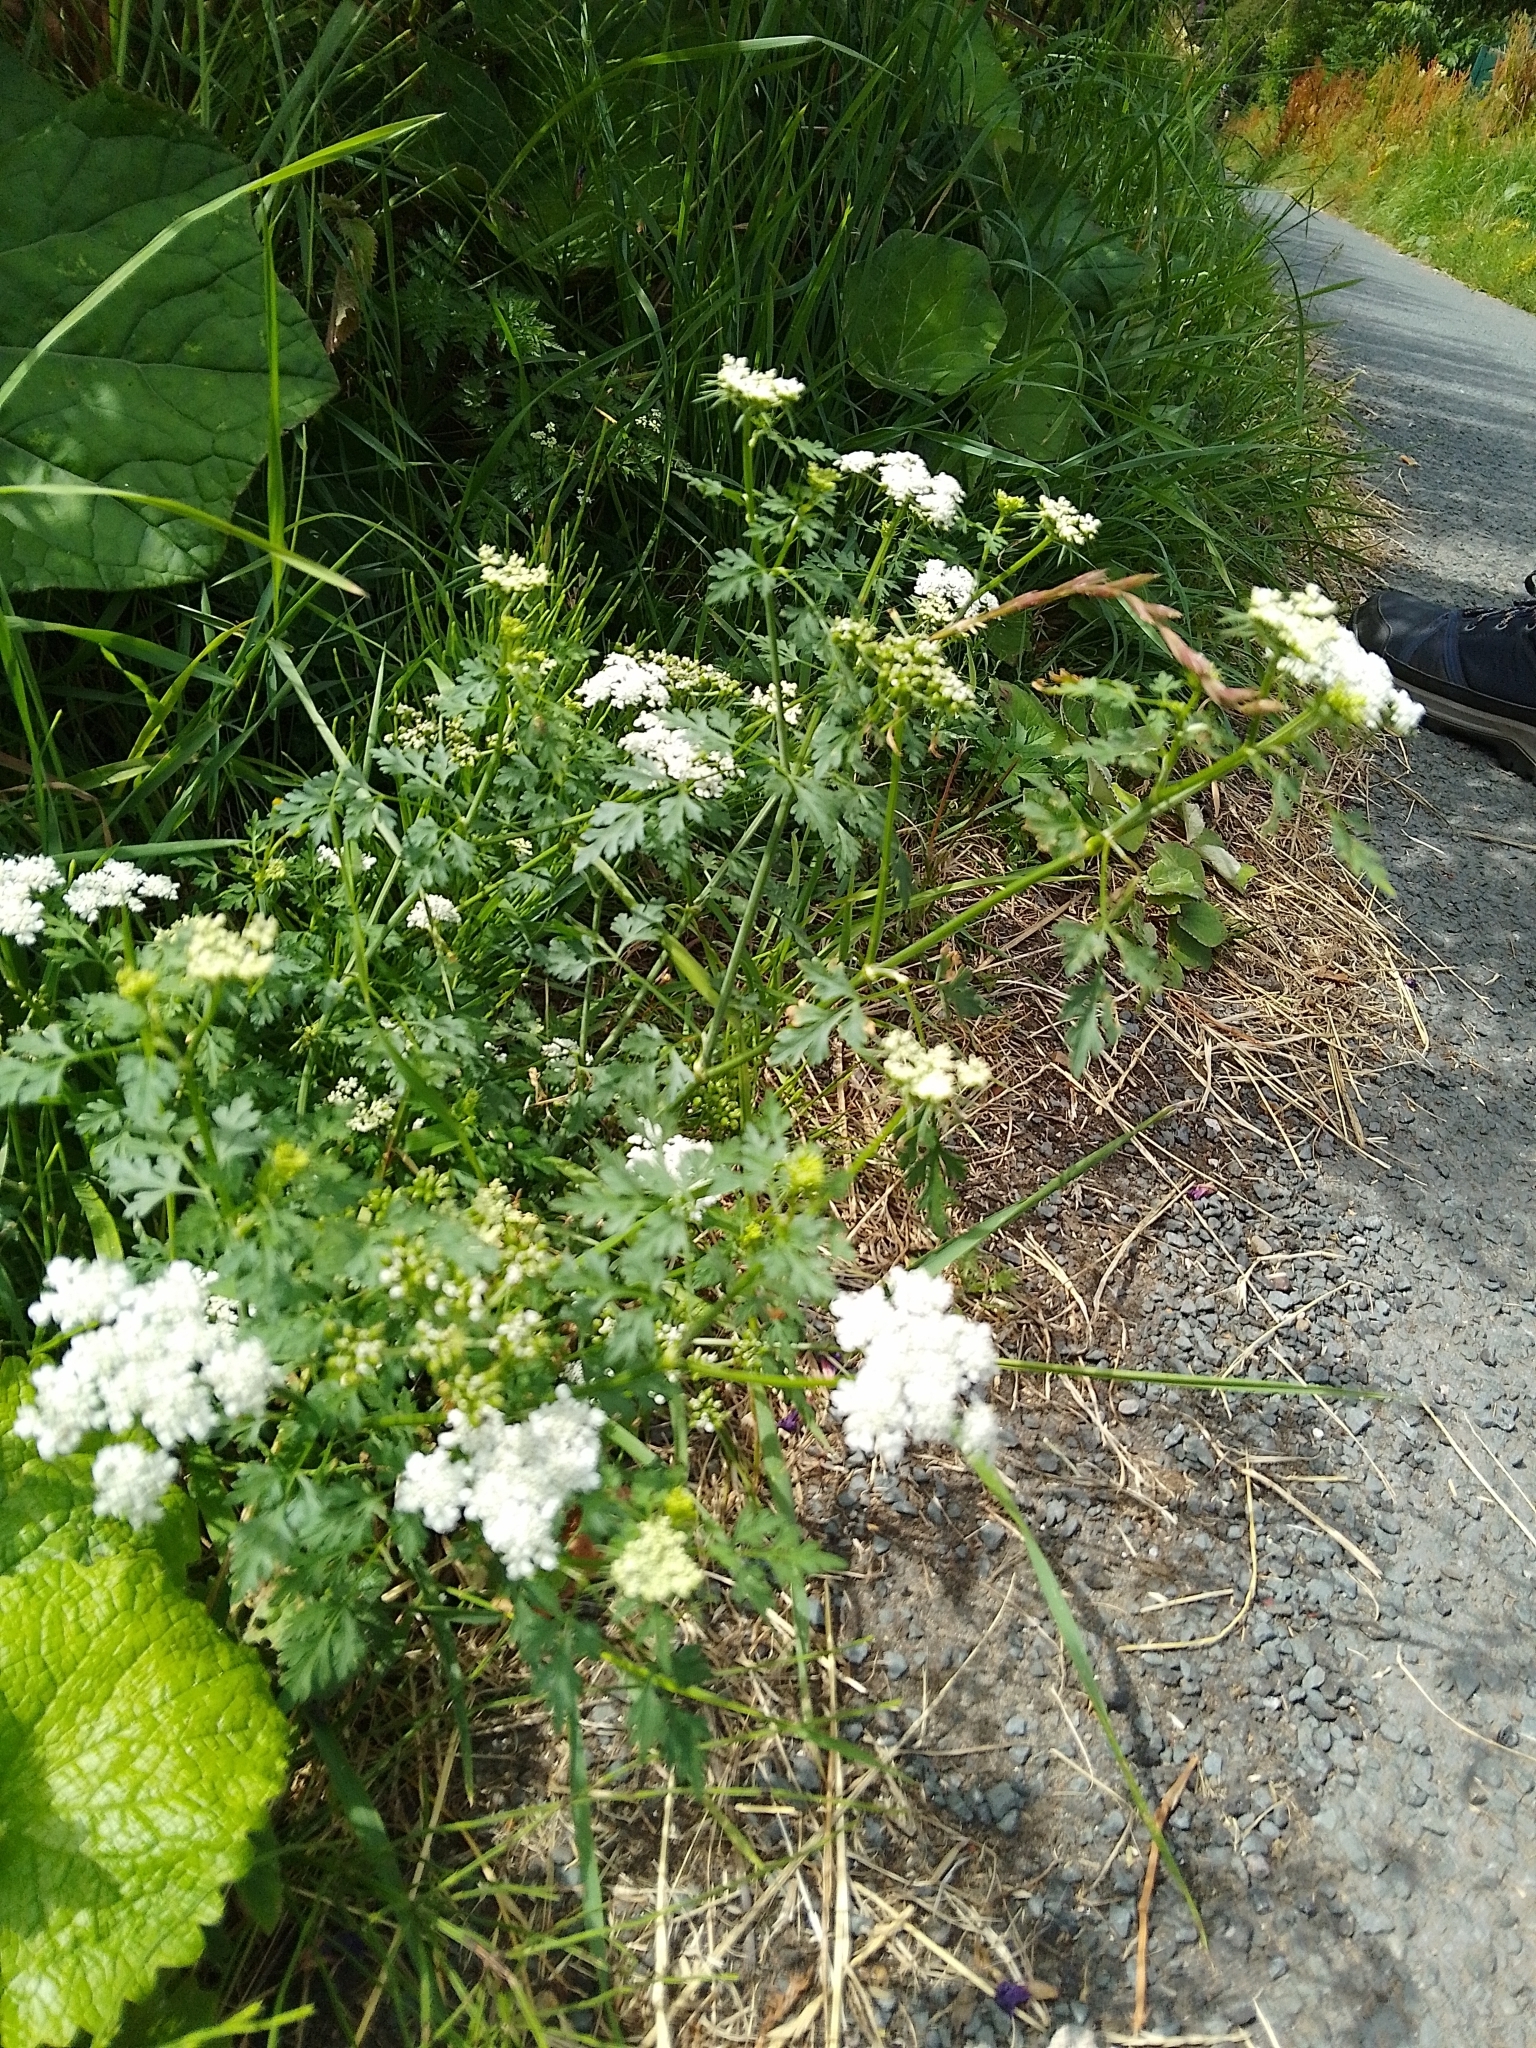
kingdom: Plantae
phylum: Tracheophyta
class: Magnoliopsida
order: Apiales
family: Apiaceae
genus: Aethusa
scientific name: Aethusa cynapium
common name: Fool's parsley
